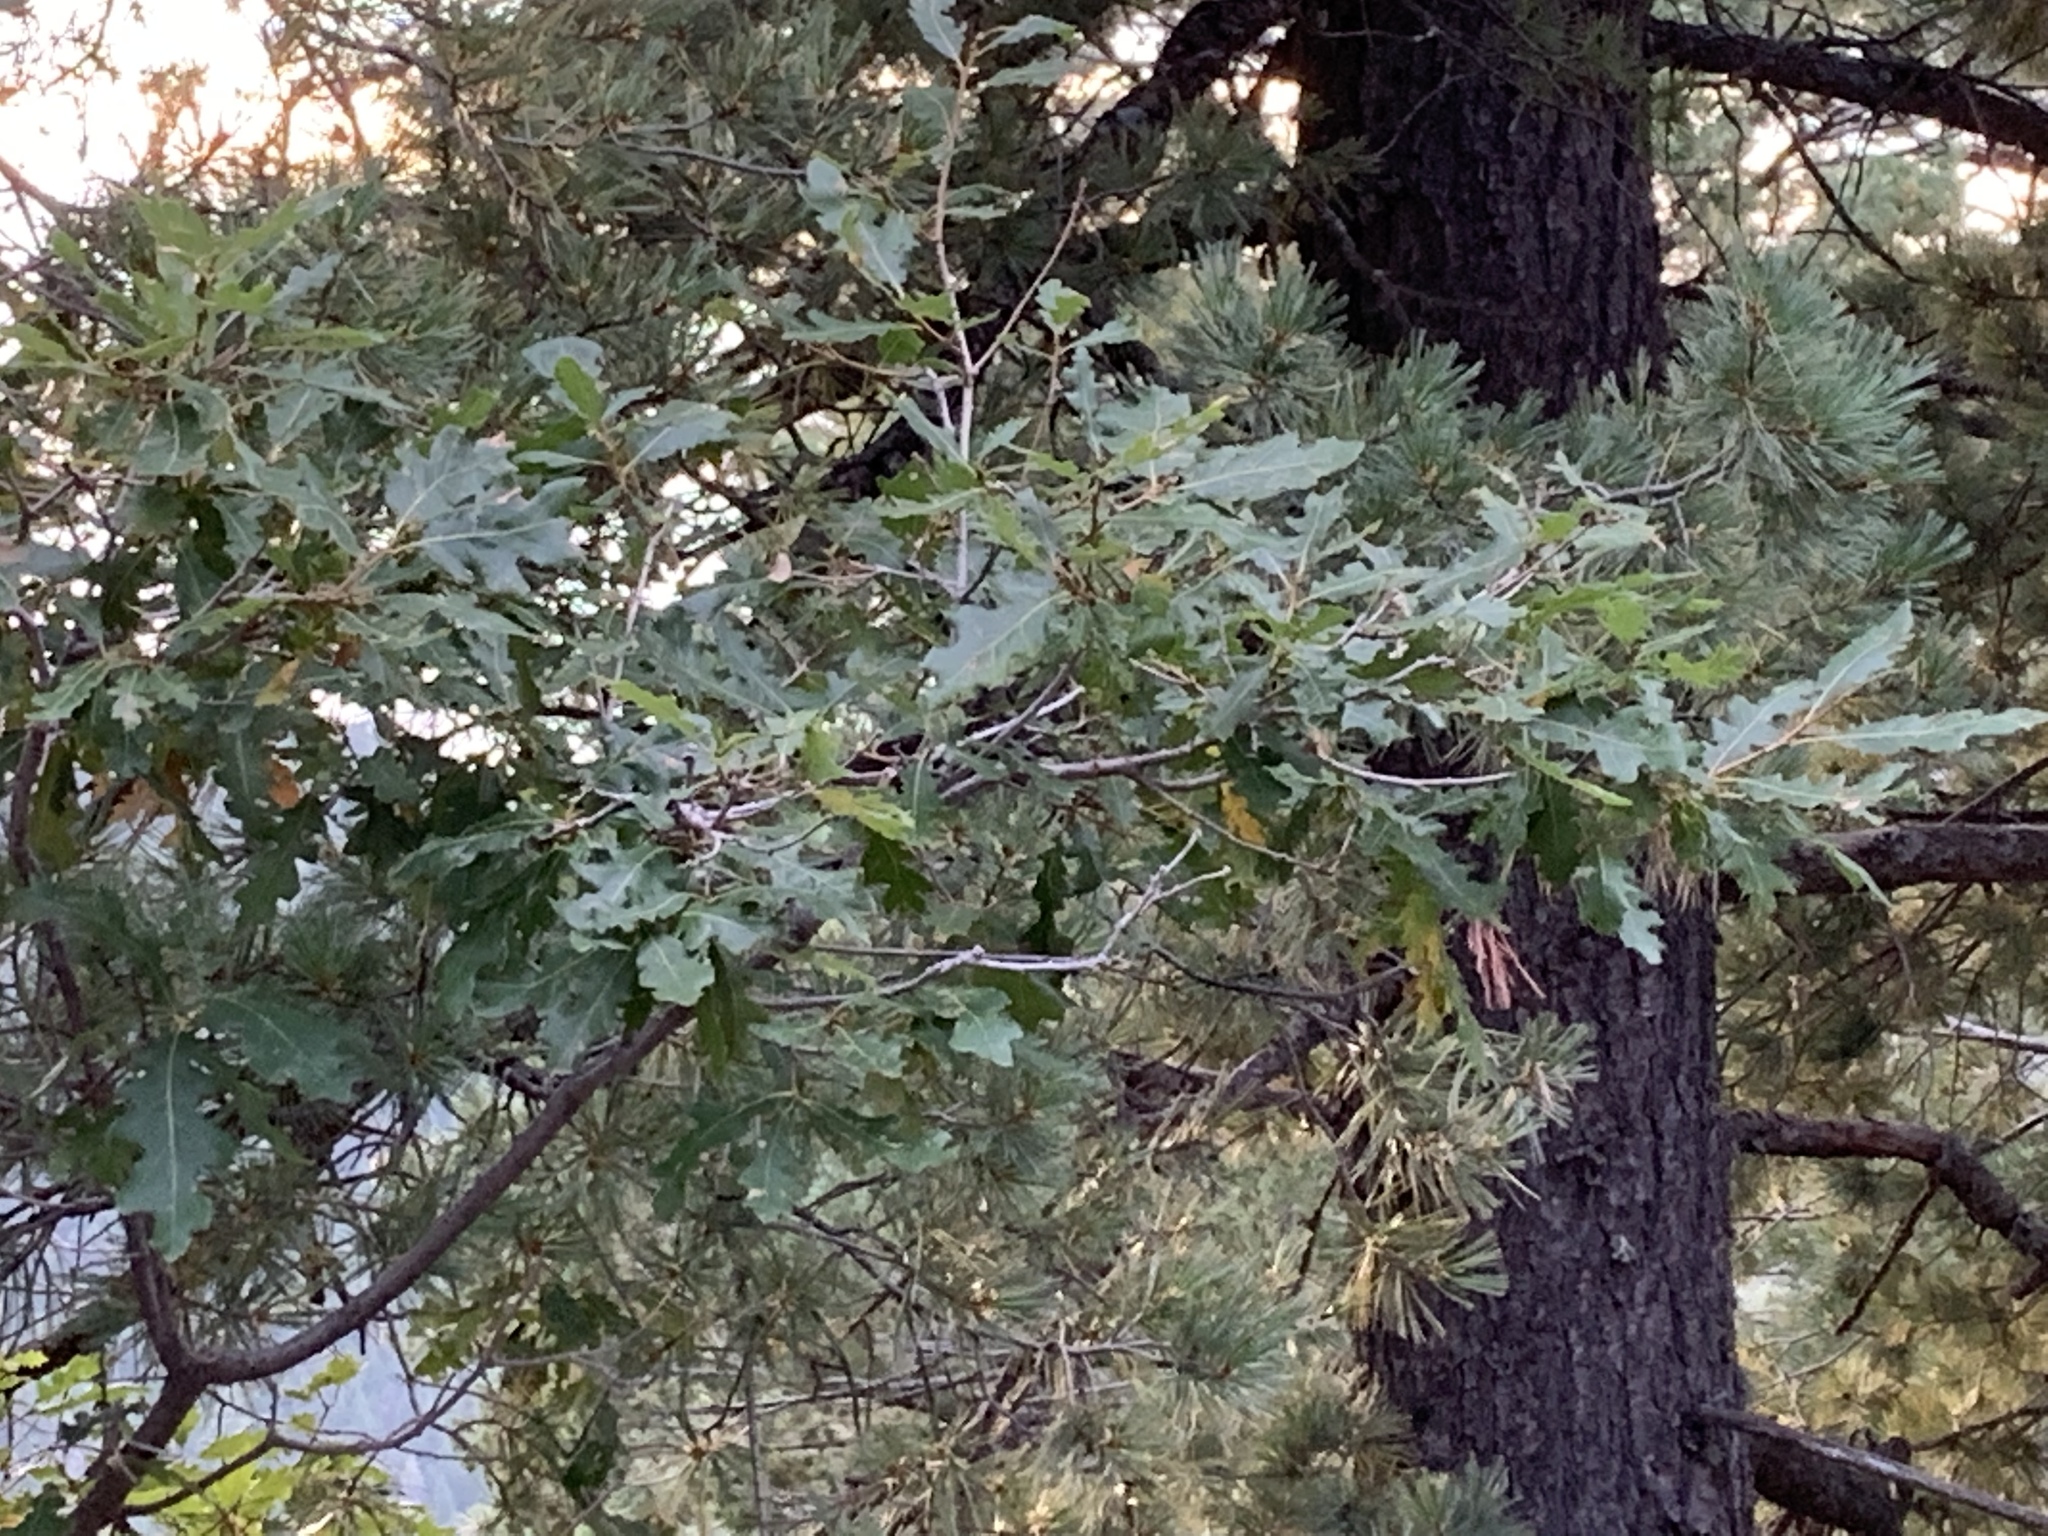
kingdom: Plantae
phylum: Tracheophyta
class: Magnoliopsida
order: Fagales
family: Fagaceae
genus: Quercus
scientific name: Quercus gambelii
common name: Gambel oak
